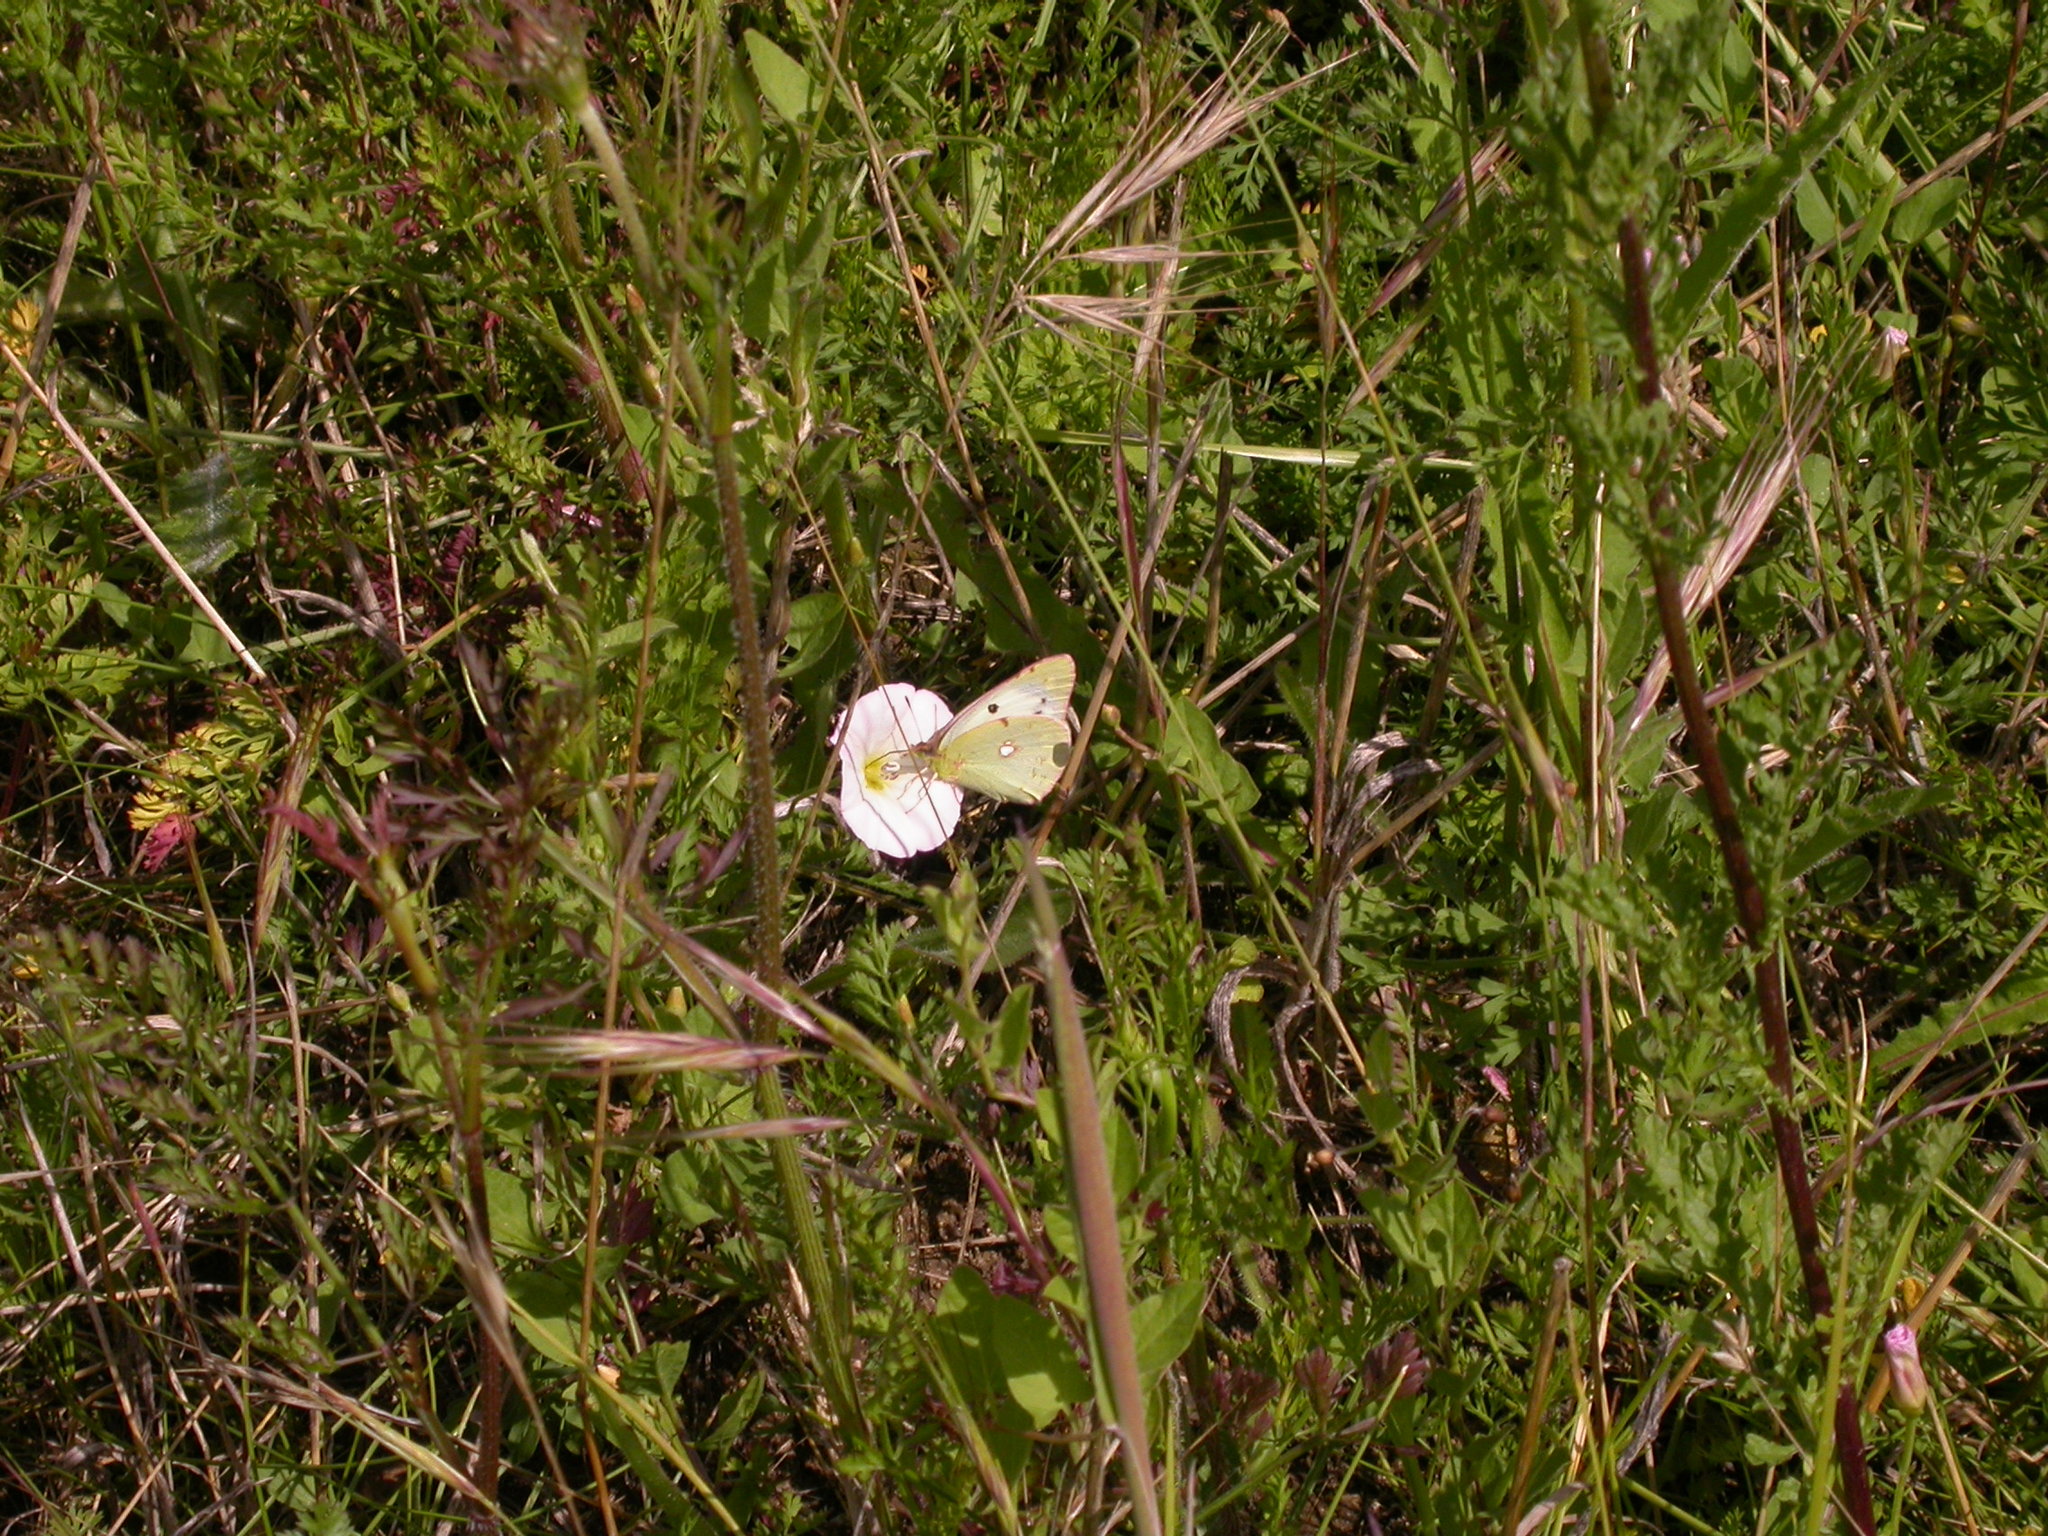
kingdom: Animalia
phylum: Arthropoda
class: Insecta
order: Lepidoptera
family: Pieridae
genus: Colias
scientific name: Colias croceus
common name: Clouded yellow
